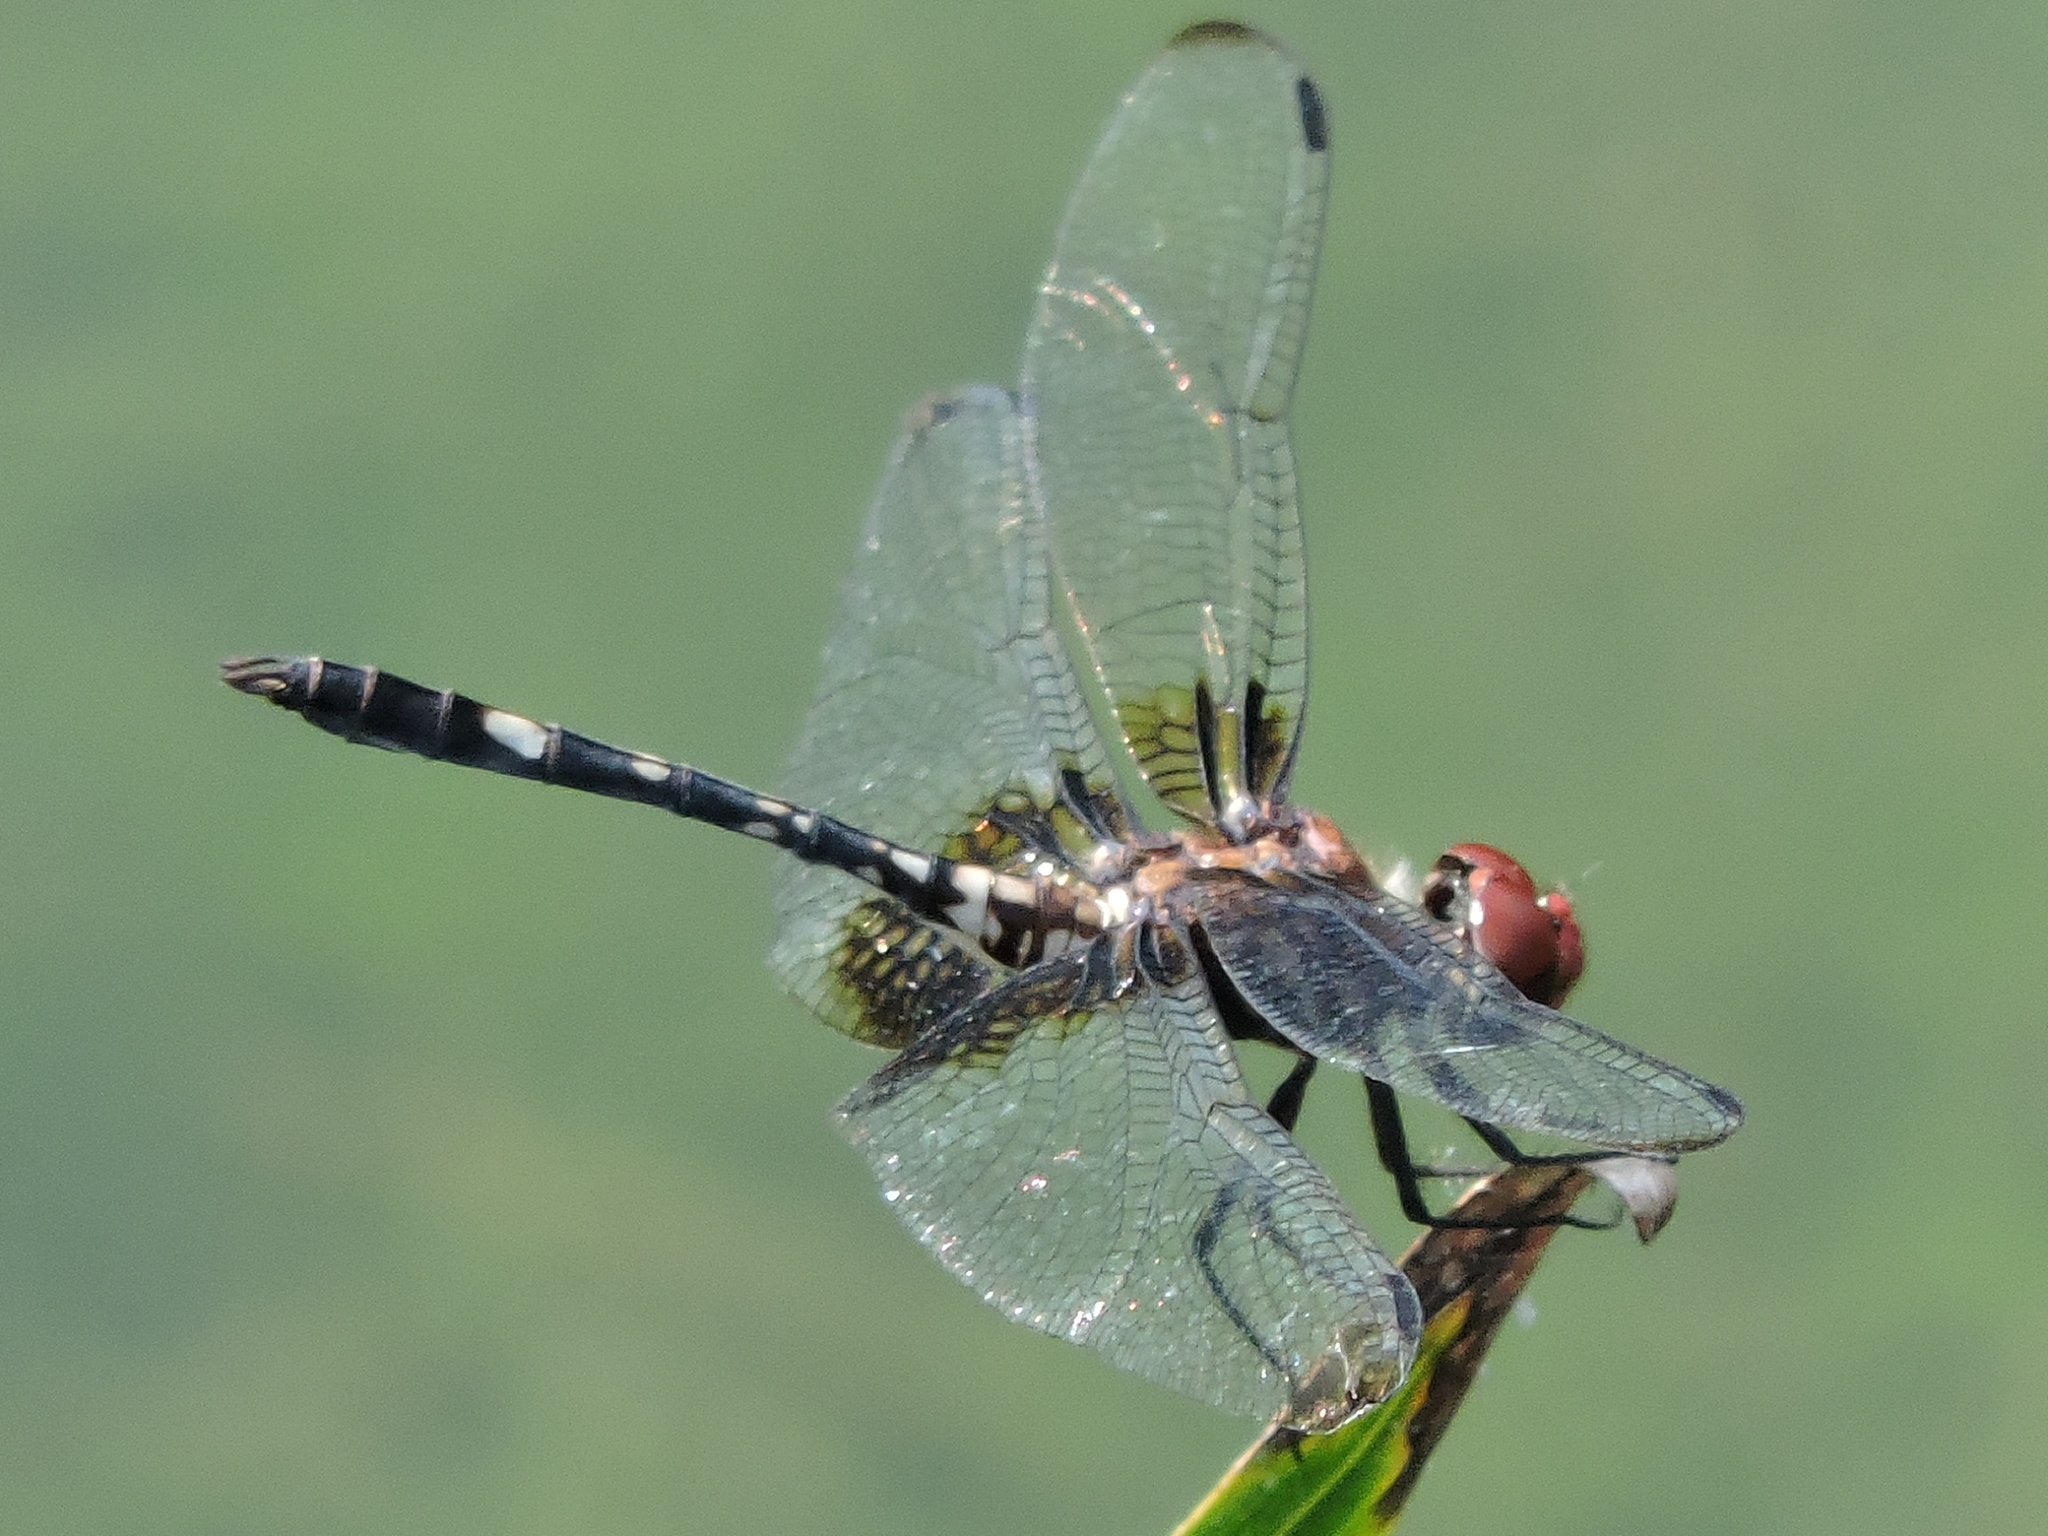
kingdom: Animalia
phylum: Arthropoda
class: Insecta
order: Odonata
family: Libellulidae
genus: Dythemis
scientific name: Dythemis fugax
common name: Checkered setwing
